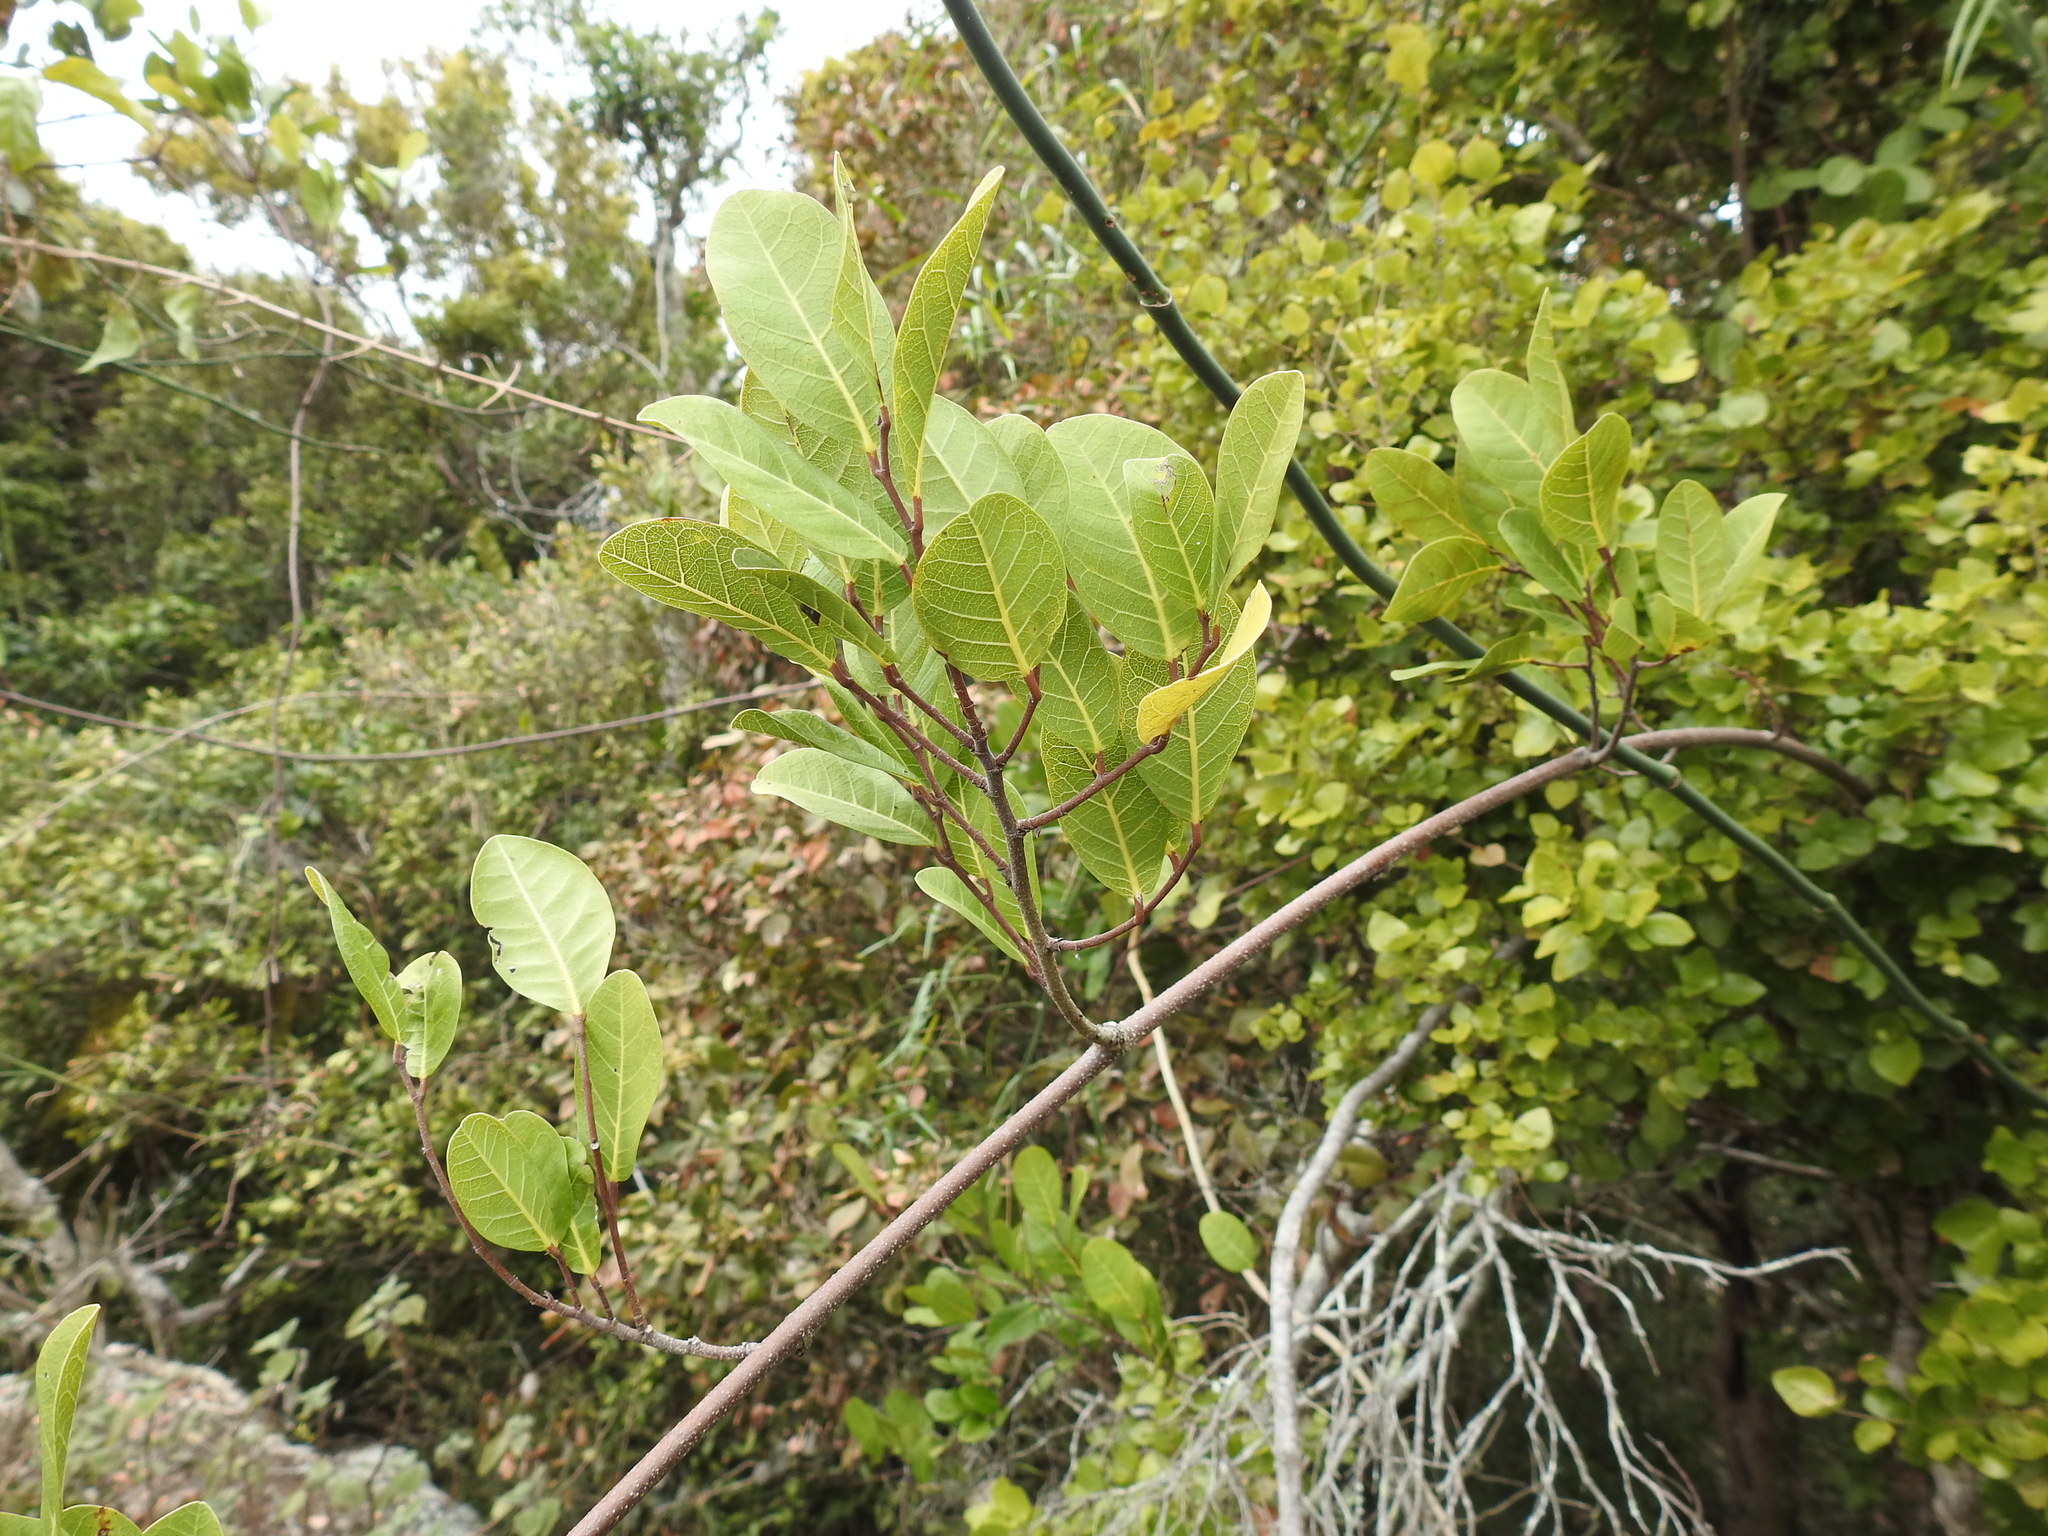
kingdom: Plantae
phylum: Tracheophyta
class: Magnoliopsida
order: Rosales
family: Moraceae
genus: Malaisia
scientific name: Malaisia scandens
